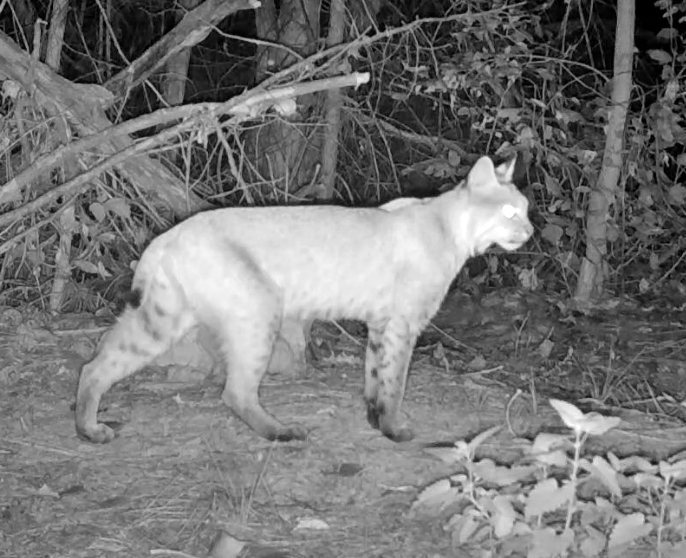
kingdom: Animalia
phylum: Chordata
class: Mammalia
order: Carnivora
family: Felidae
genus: Lynx
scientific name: Lynx rufus
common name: Bobcat
